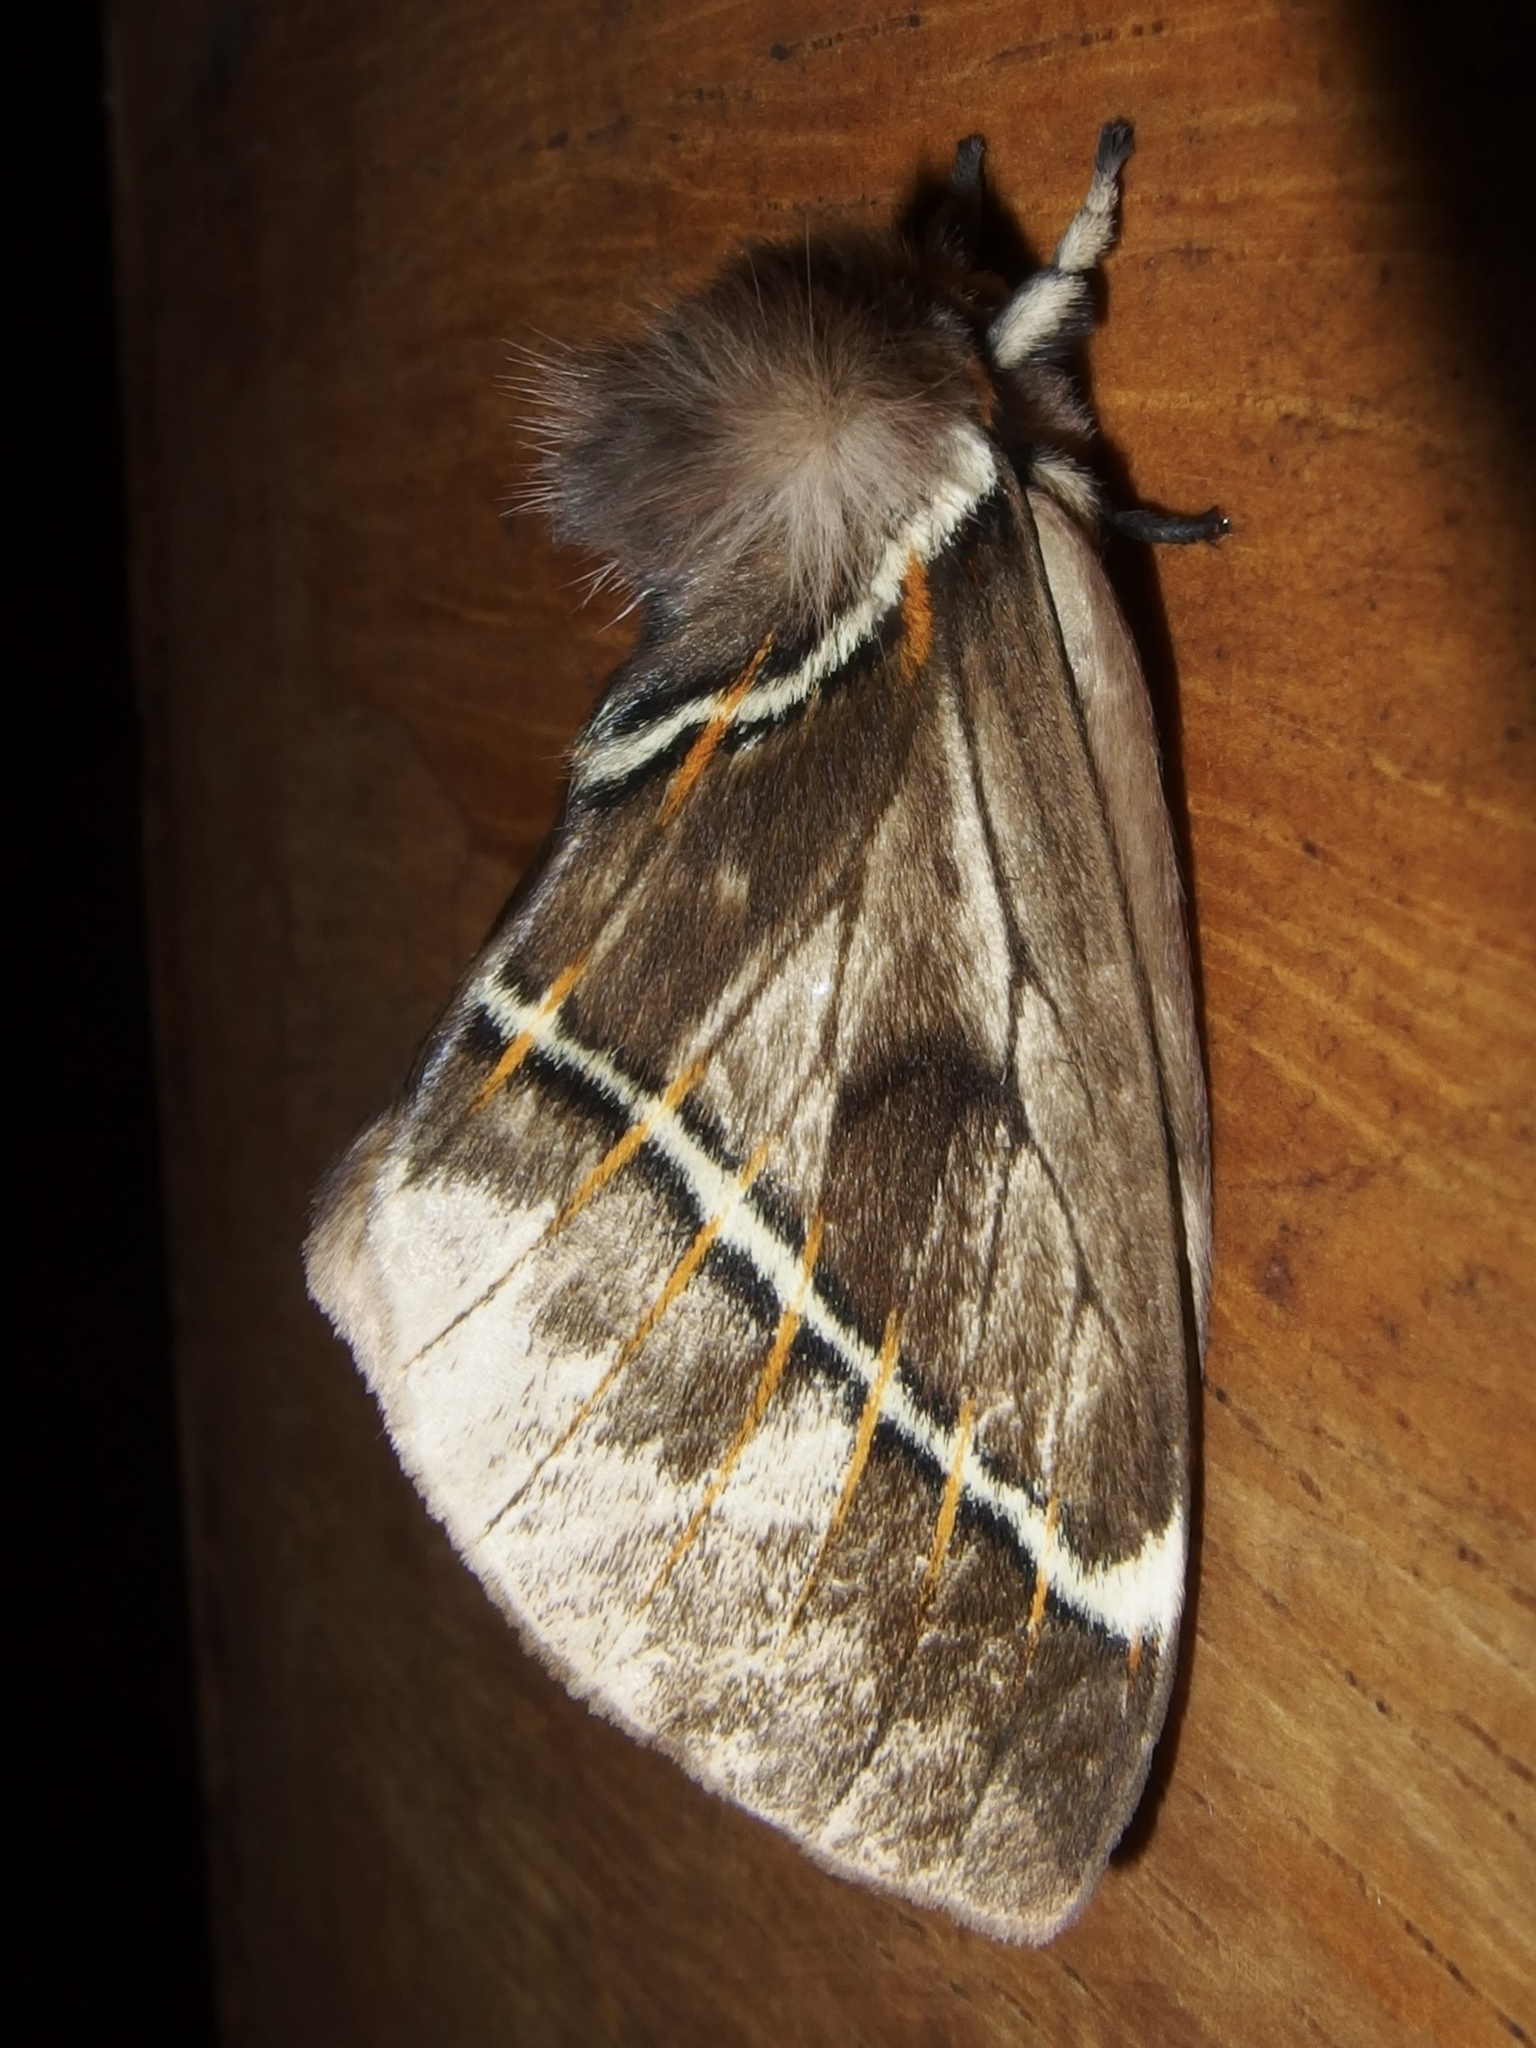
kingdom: Animalia
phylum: Arthropoda
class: Insecta
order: Lepidoptera
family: Saturniidae
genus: Pseudodirphia
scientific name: Pseudodirphia biremis
